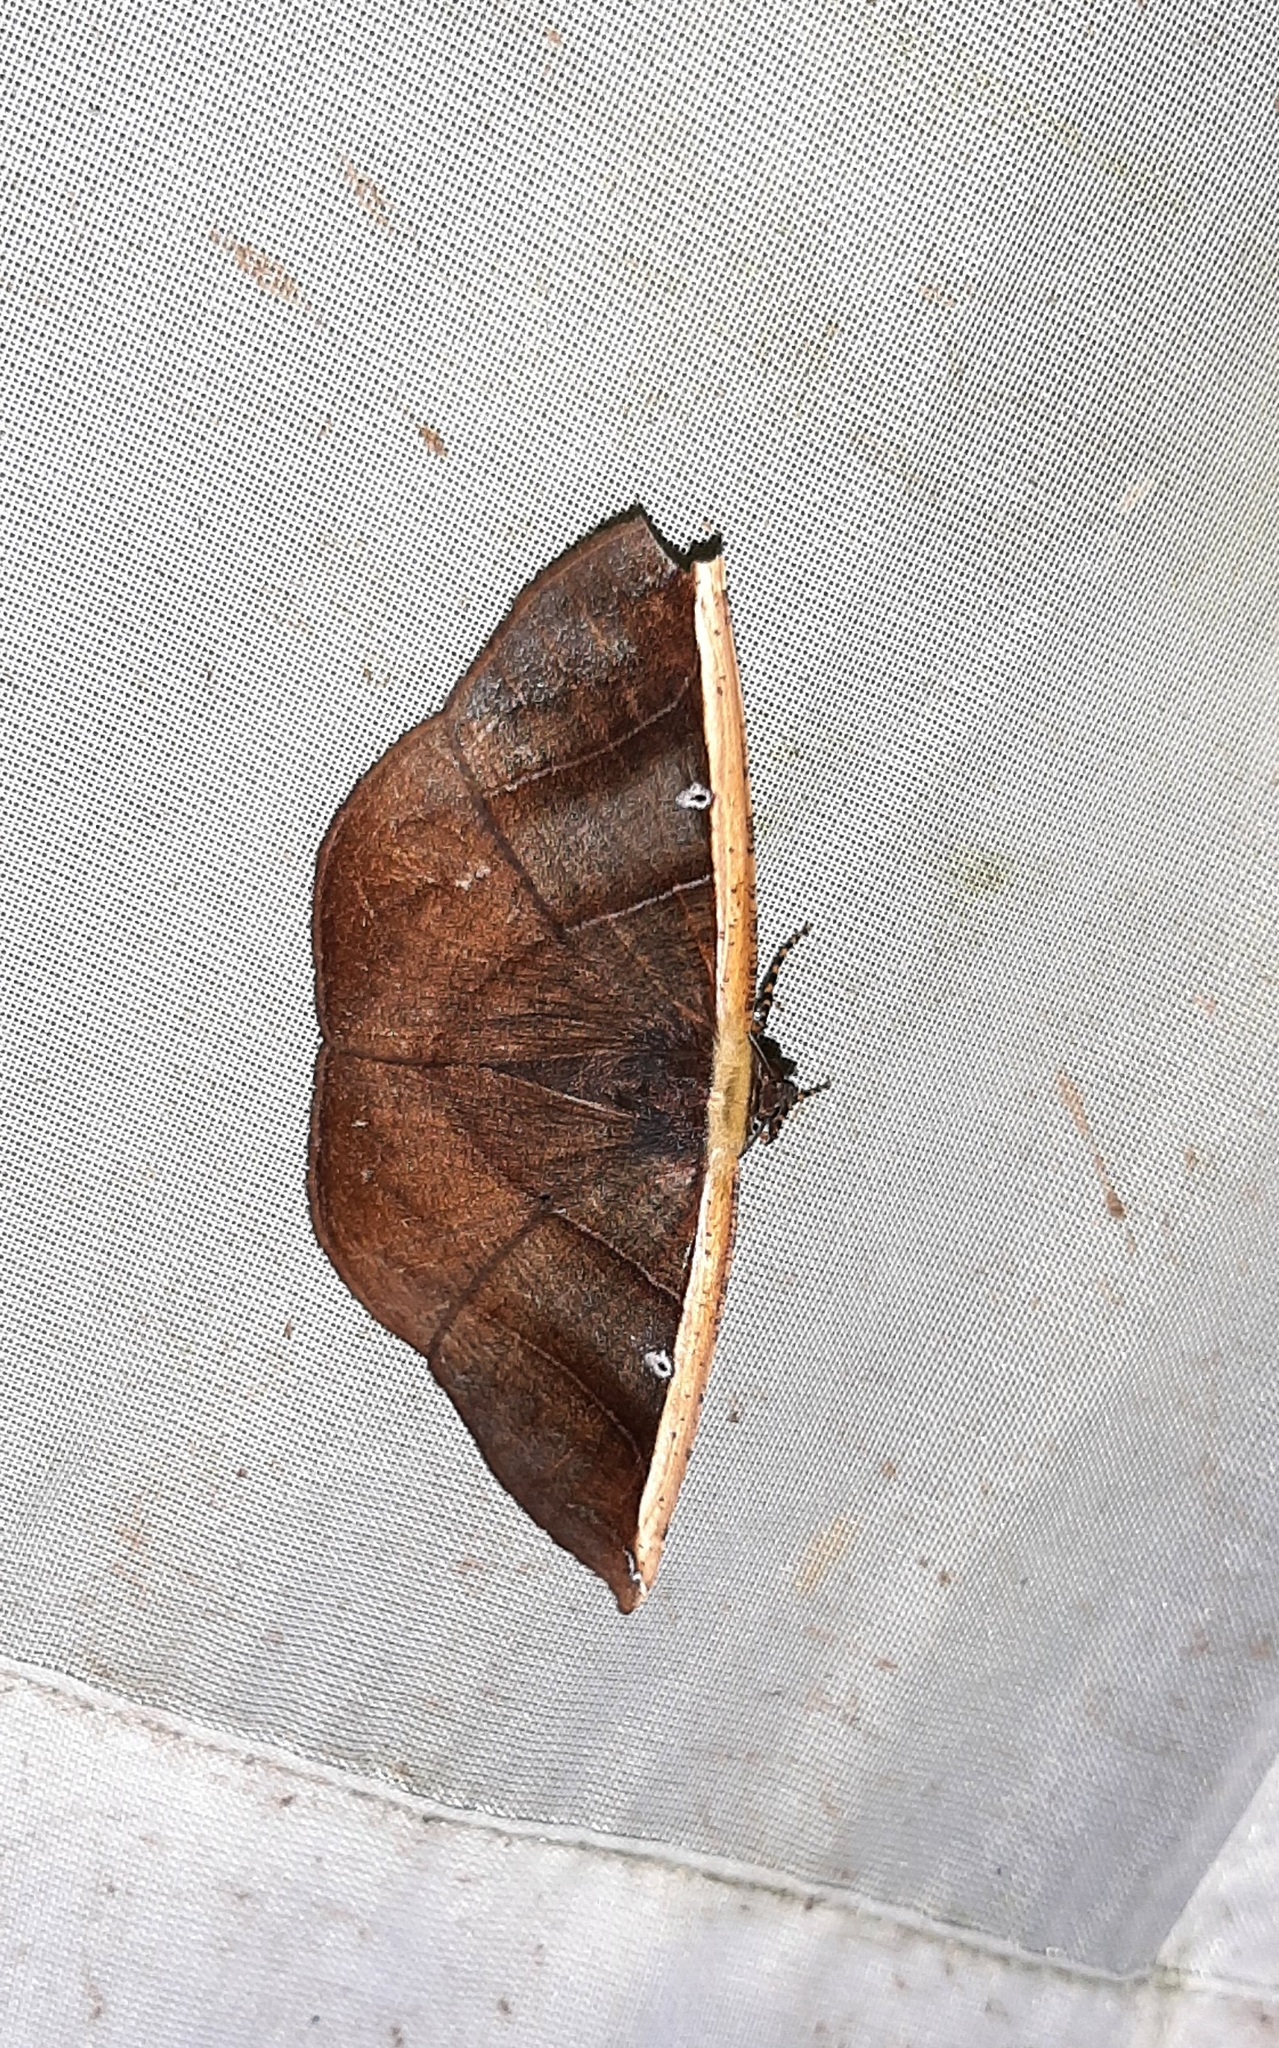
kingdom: Animalia
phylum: Arthropoda
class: Insecta
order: Lepidoptera
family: Geometridae
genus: Cimicodes
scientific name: Cimicodes albicosta
